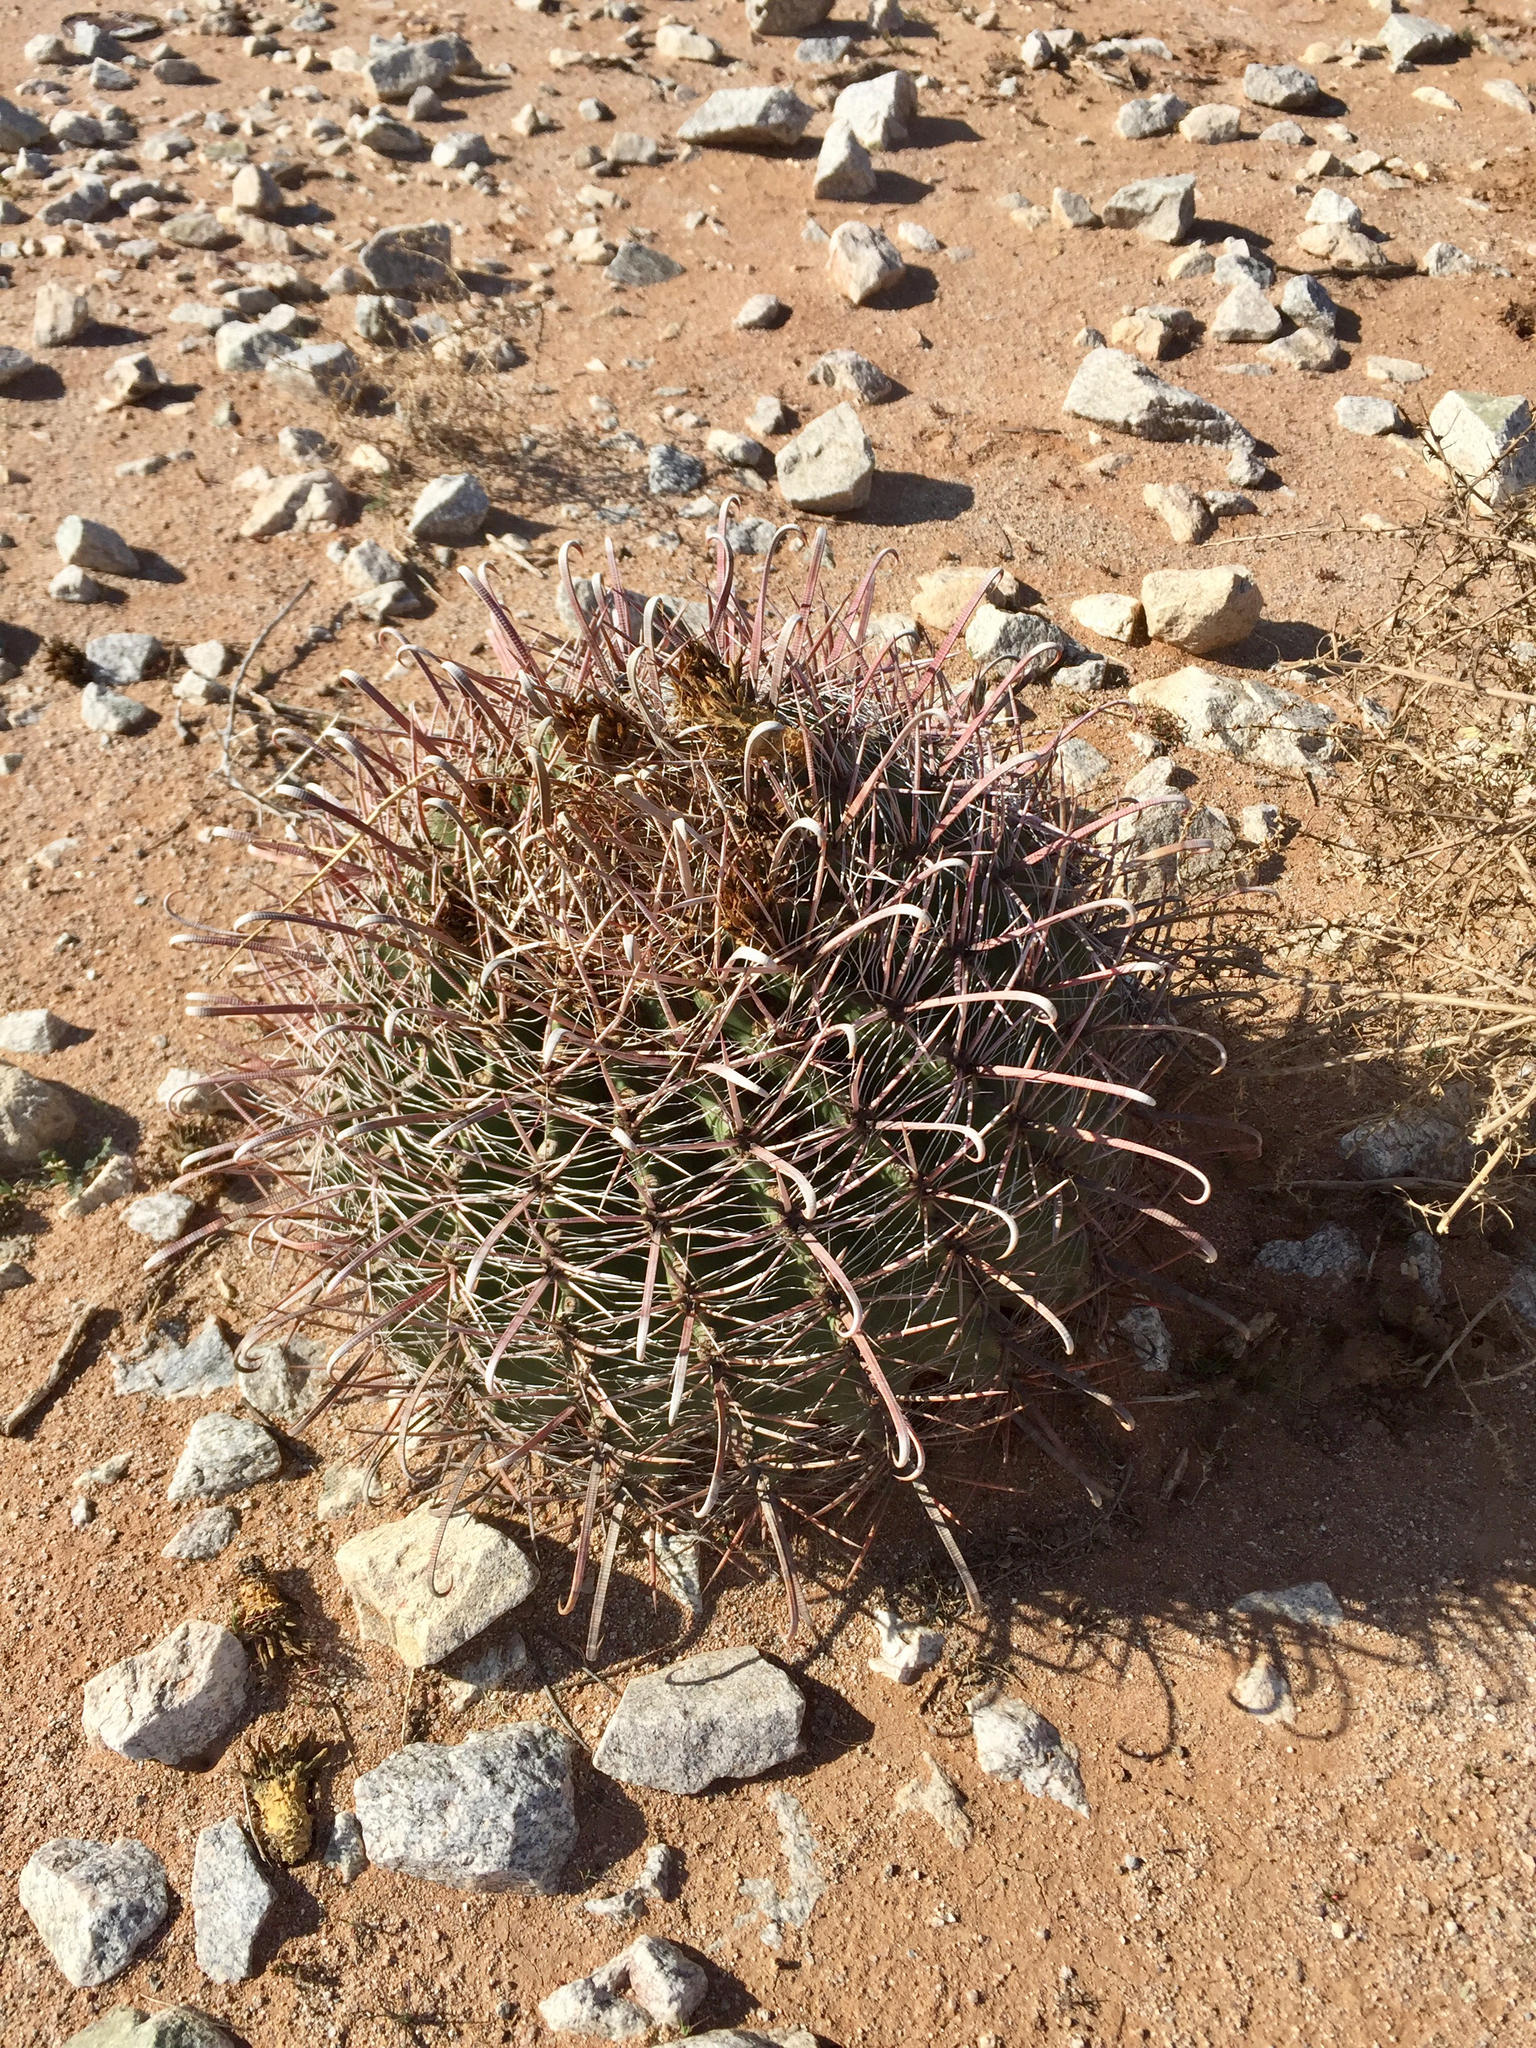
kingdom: Plantae
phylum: Tracheophyta
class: Magnoliopsida
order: Caryophyllales
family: Cactaceae
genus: Ferocactus
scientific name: Ferocactus wislizeni
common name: Candy barrel cactus
